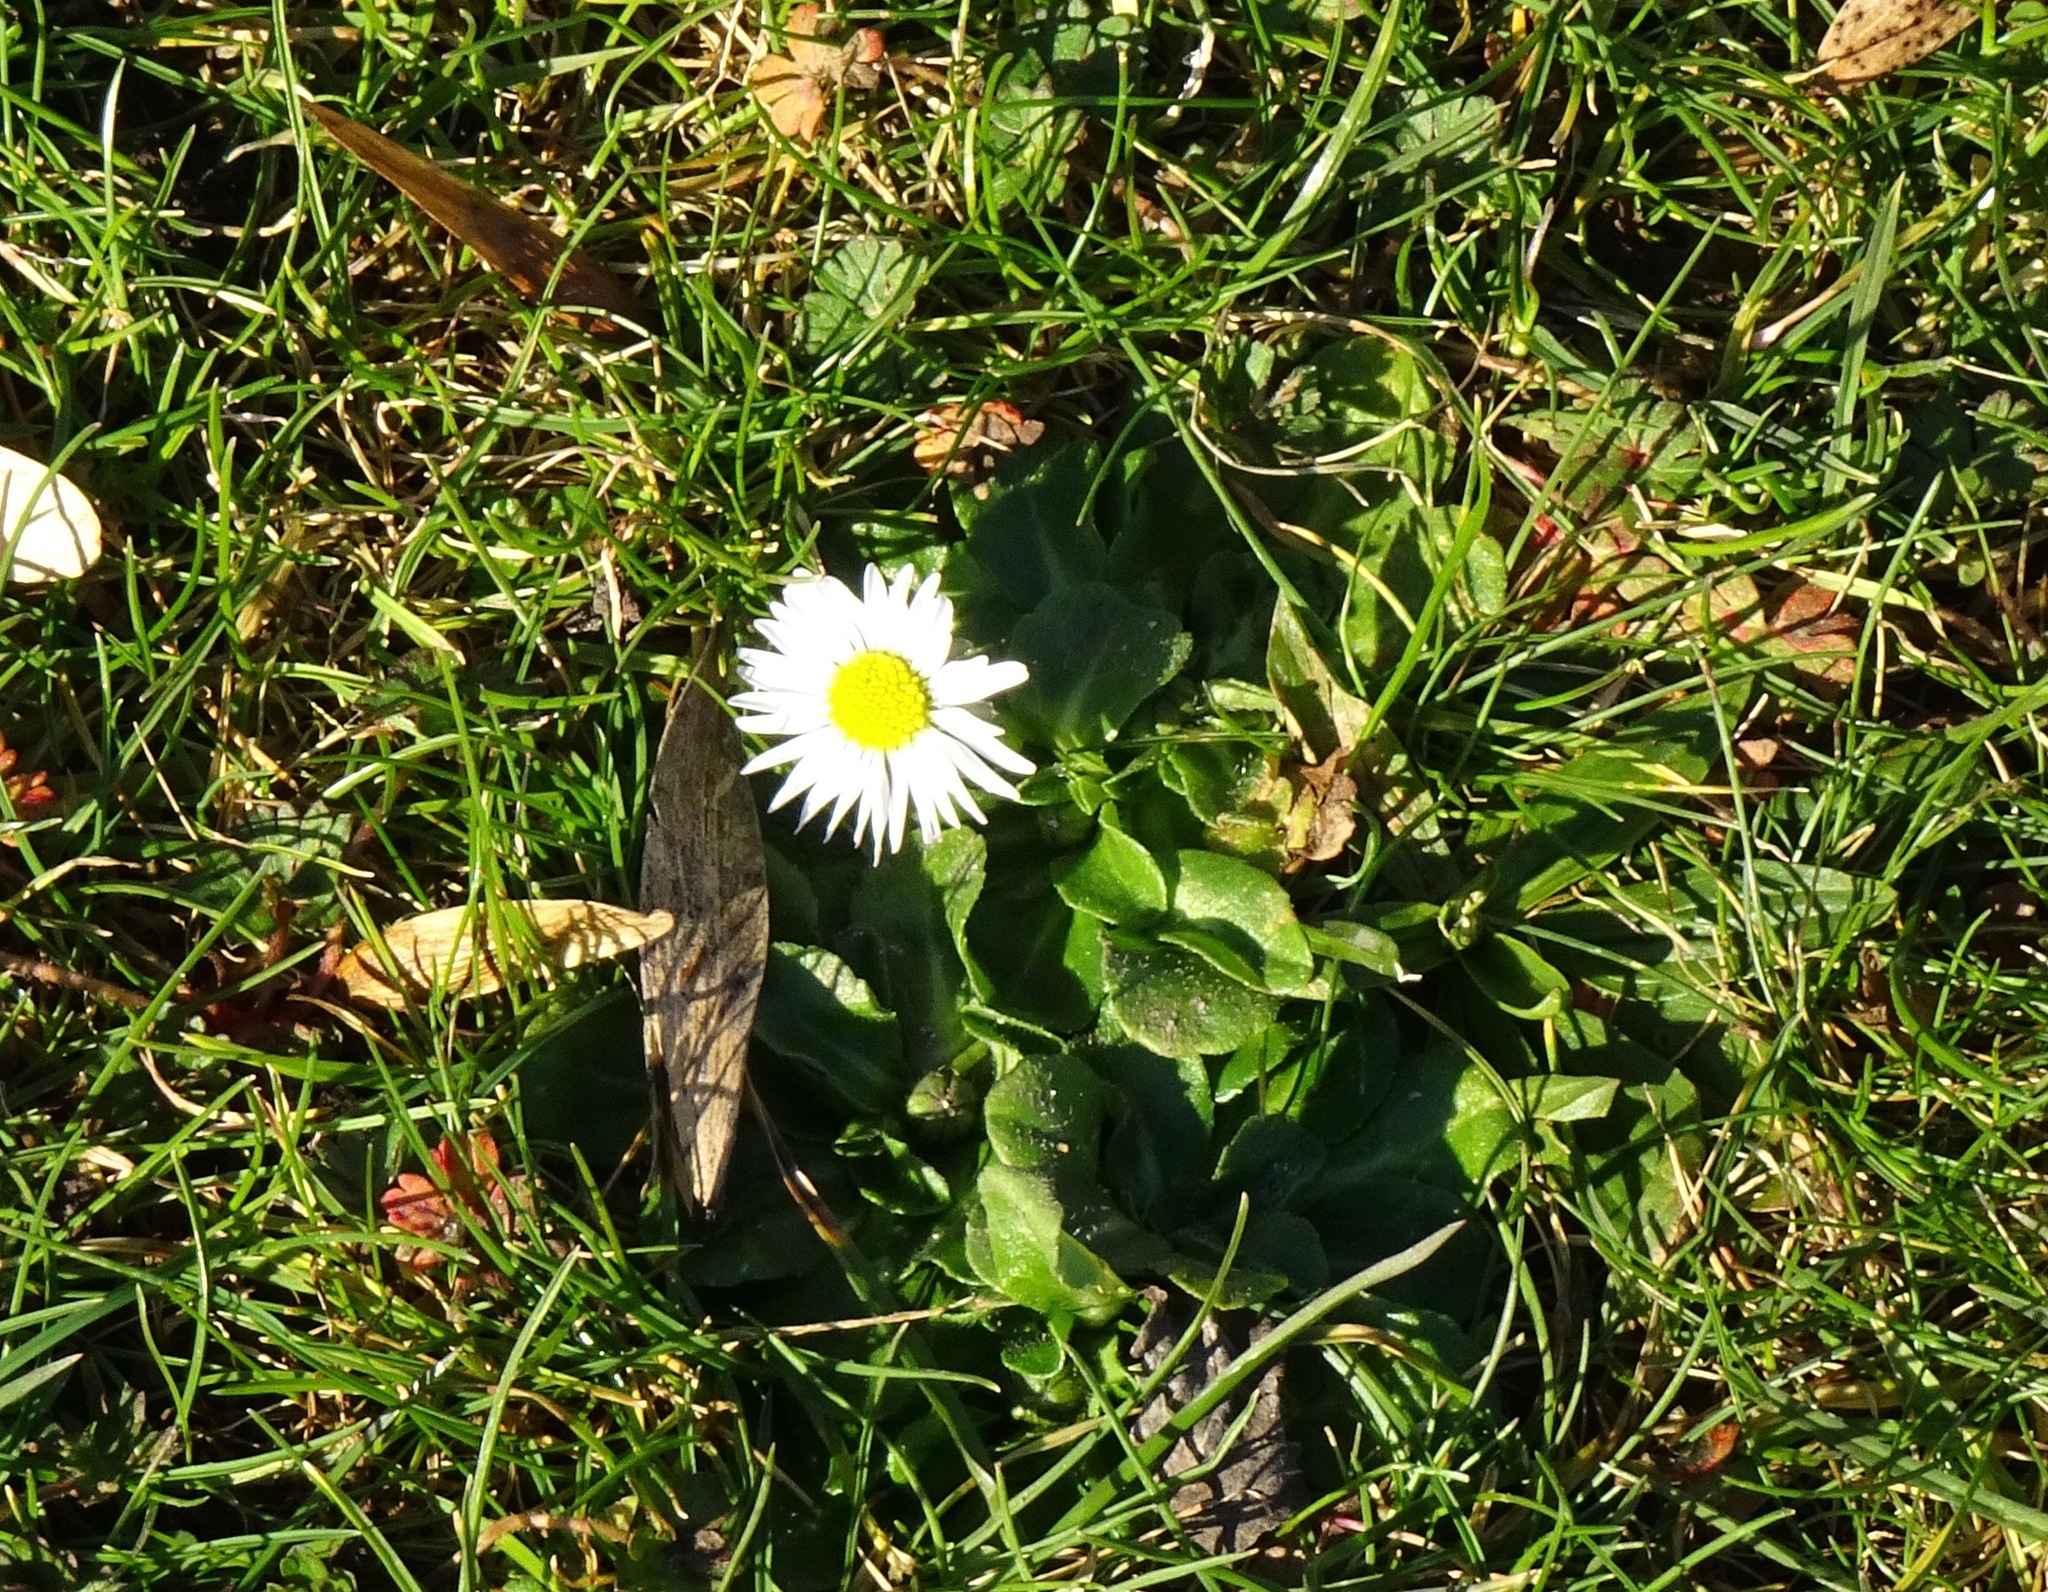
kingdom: Plantae
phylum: Tracheophyta
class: Magnoliopsida
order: Asterales
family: Asteraceae
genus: Bellis
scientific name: Bellis perennis
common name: Lawndaisy
